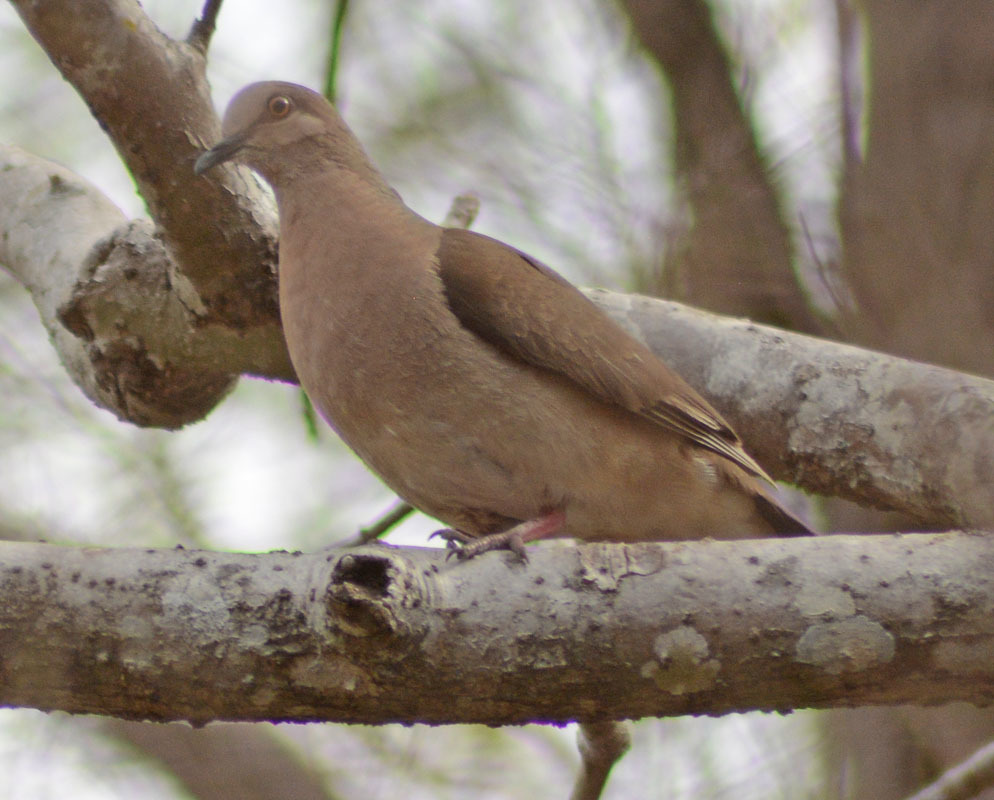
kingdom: Animalia
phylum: Chordata
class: Aves
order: Columbiformes
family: Columbidae
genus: Leptotila
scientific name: Leptotila verreauxi
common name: White-tipped dove
